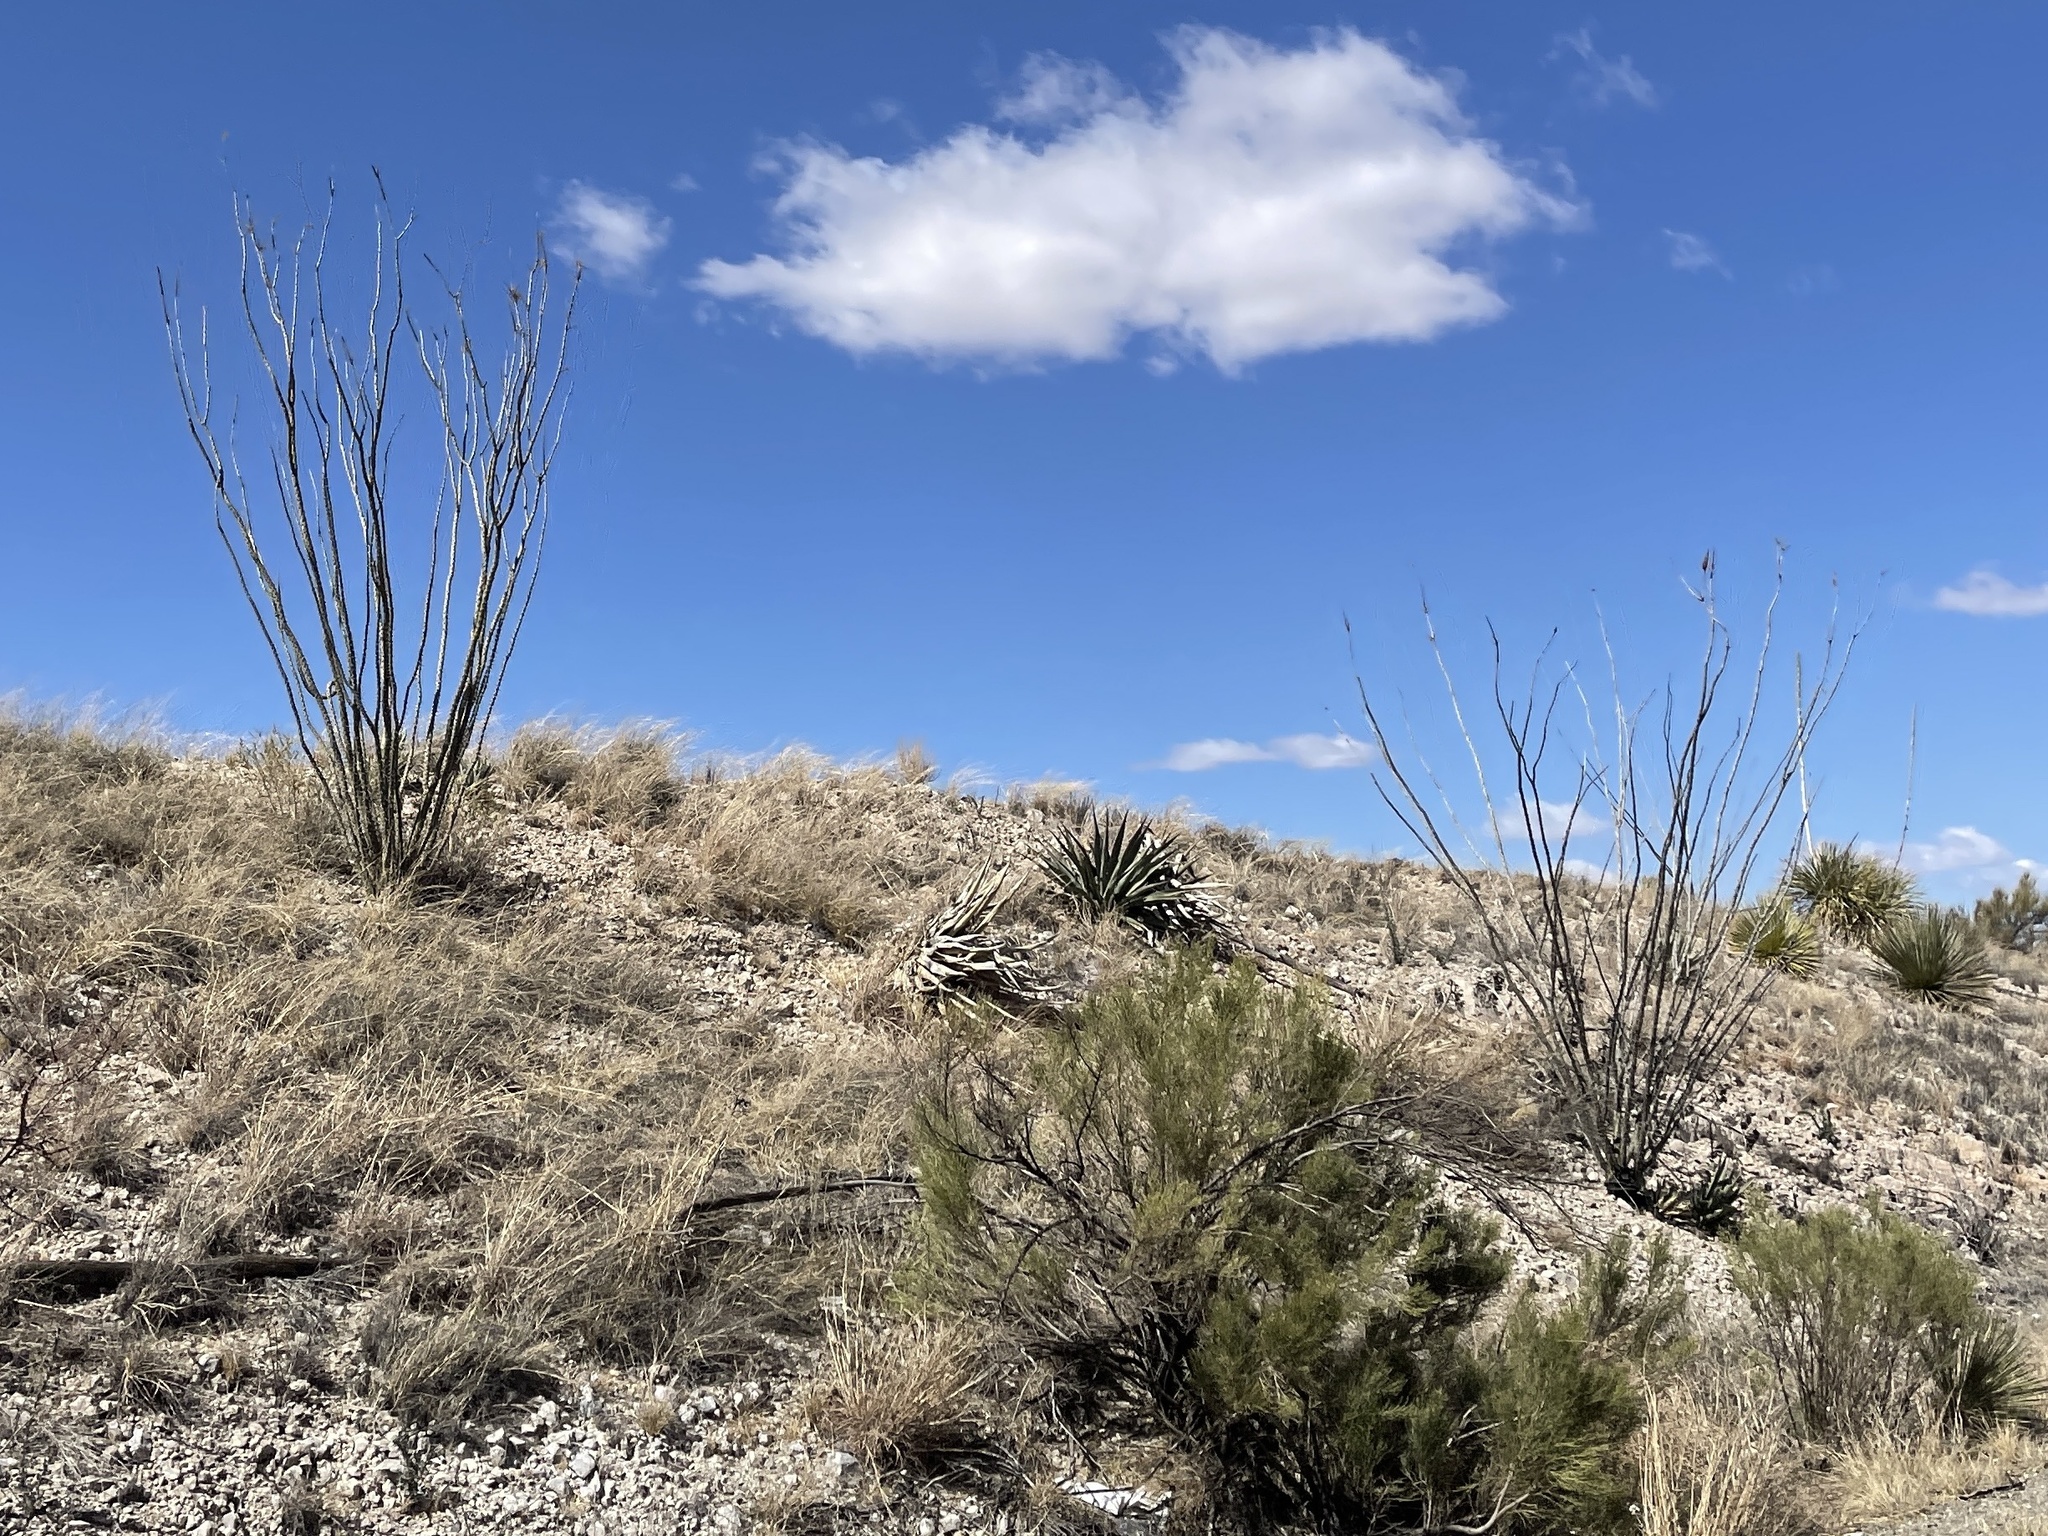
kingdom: Plantae
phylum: Tracheophyta
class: Magnoliopsida
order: Ericales
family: Fouquieriaceae
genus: Fouquieria
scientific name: Fouquieria splendens
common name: Vine-cactus
